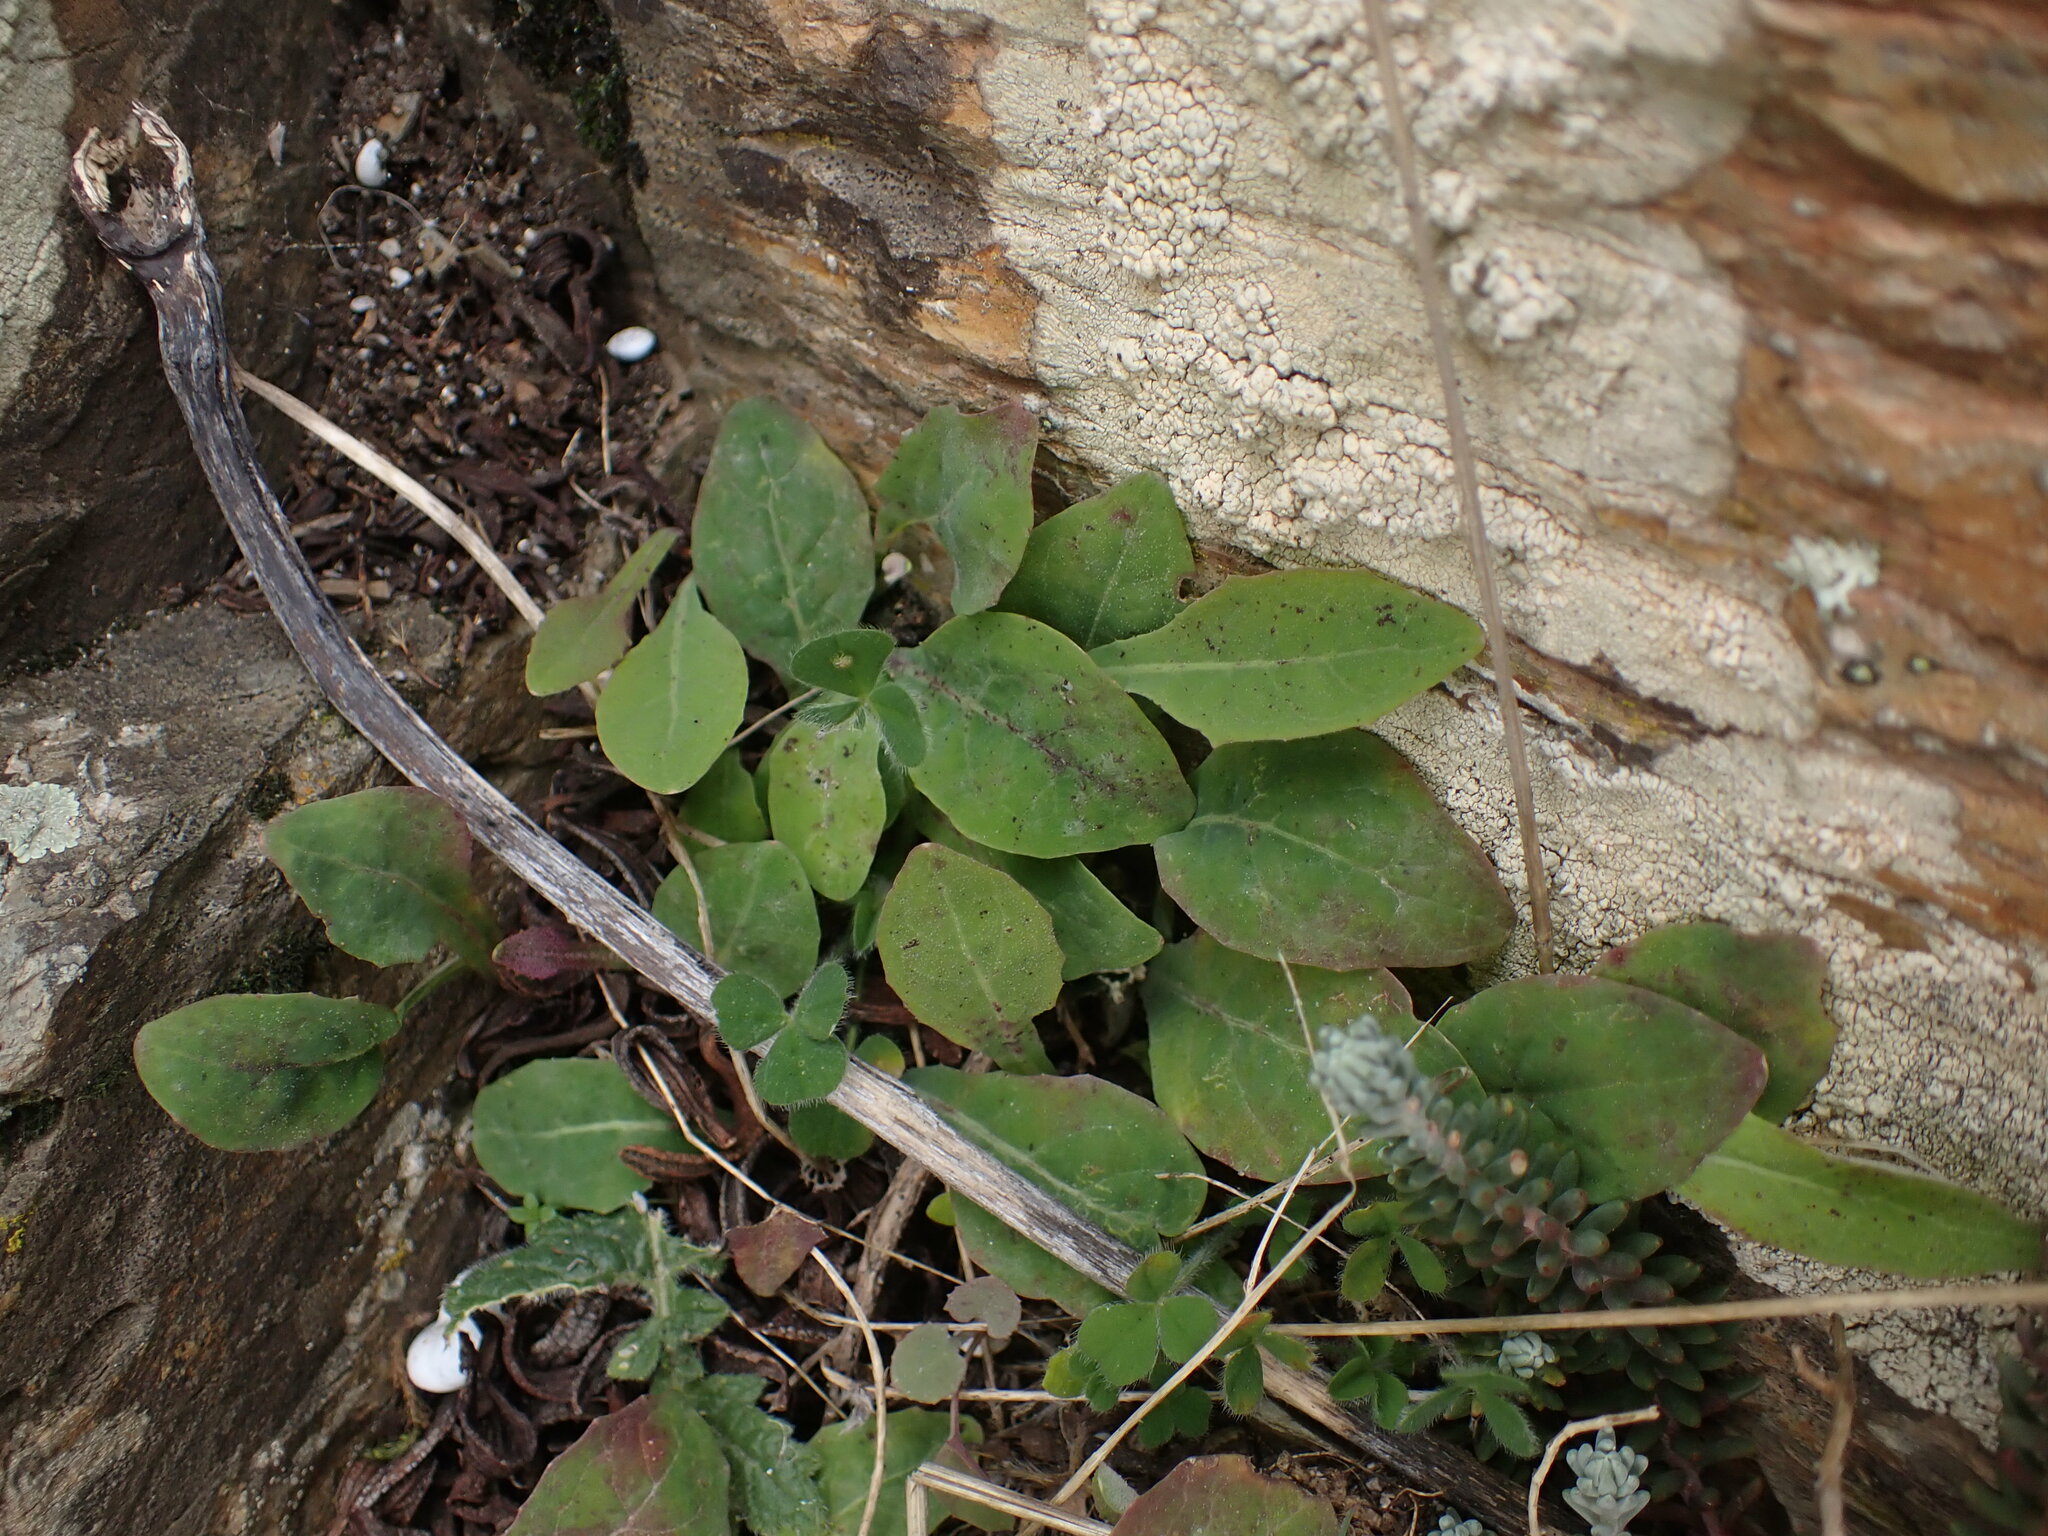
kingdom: Plantae
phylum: Tracheophyta
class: Magnoliopsida
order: Asterales
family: Asteraceae
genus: Aetheorhiza
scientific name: Aetheorhiza bulbosa
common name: Tuberous hawk's-beard
